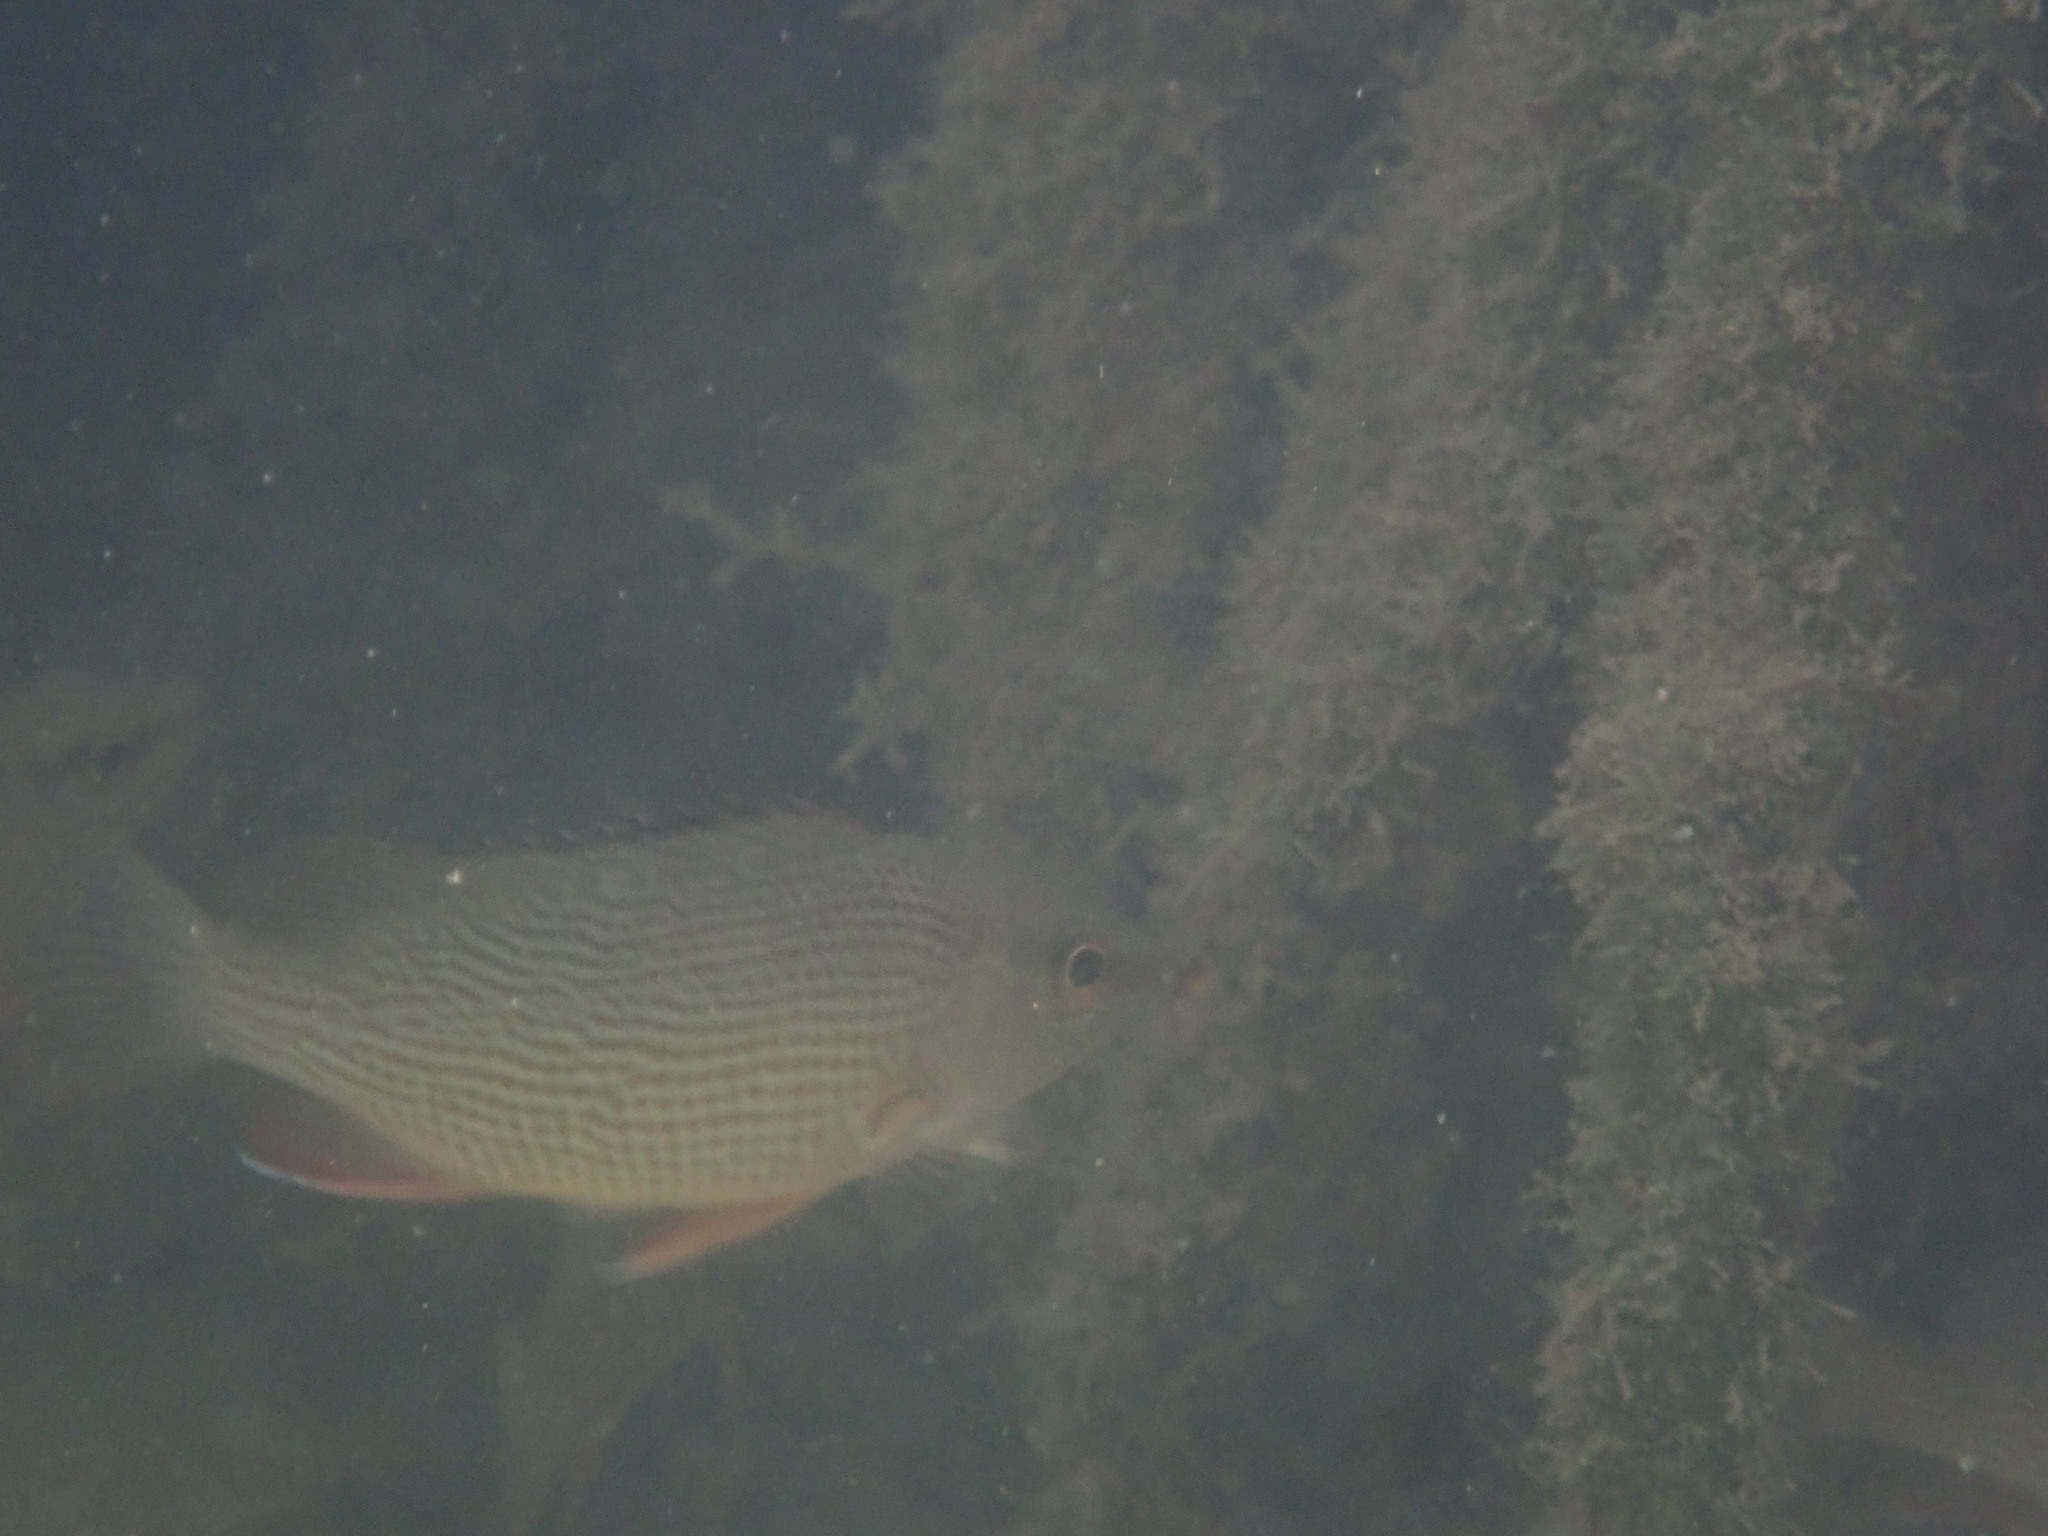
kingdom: Animalia
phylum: Chordata
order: Perciformes
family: Lutjanidae
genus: Lutjanus
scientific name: Lutjanus griseus
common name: Gray snapper
